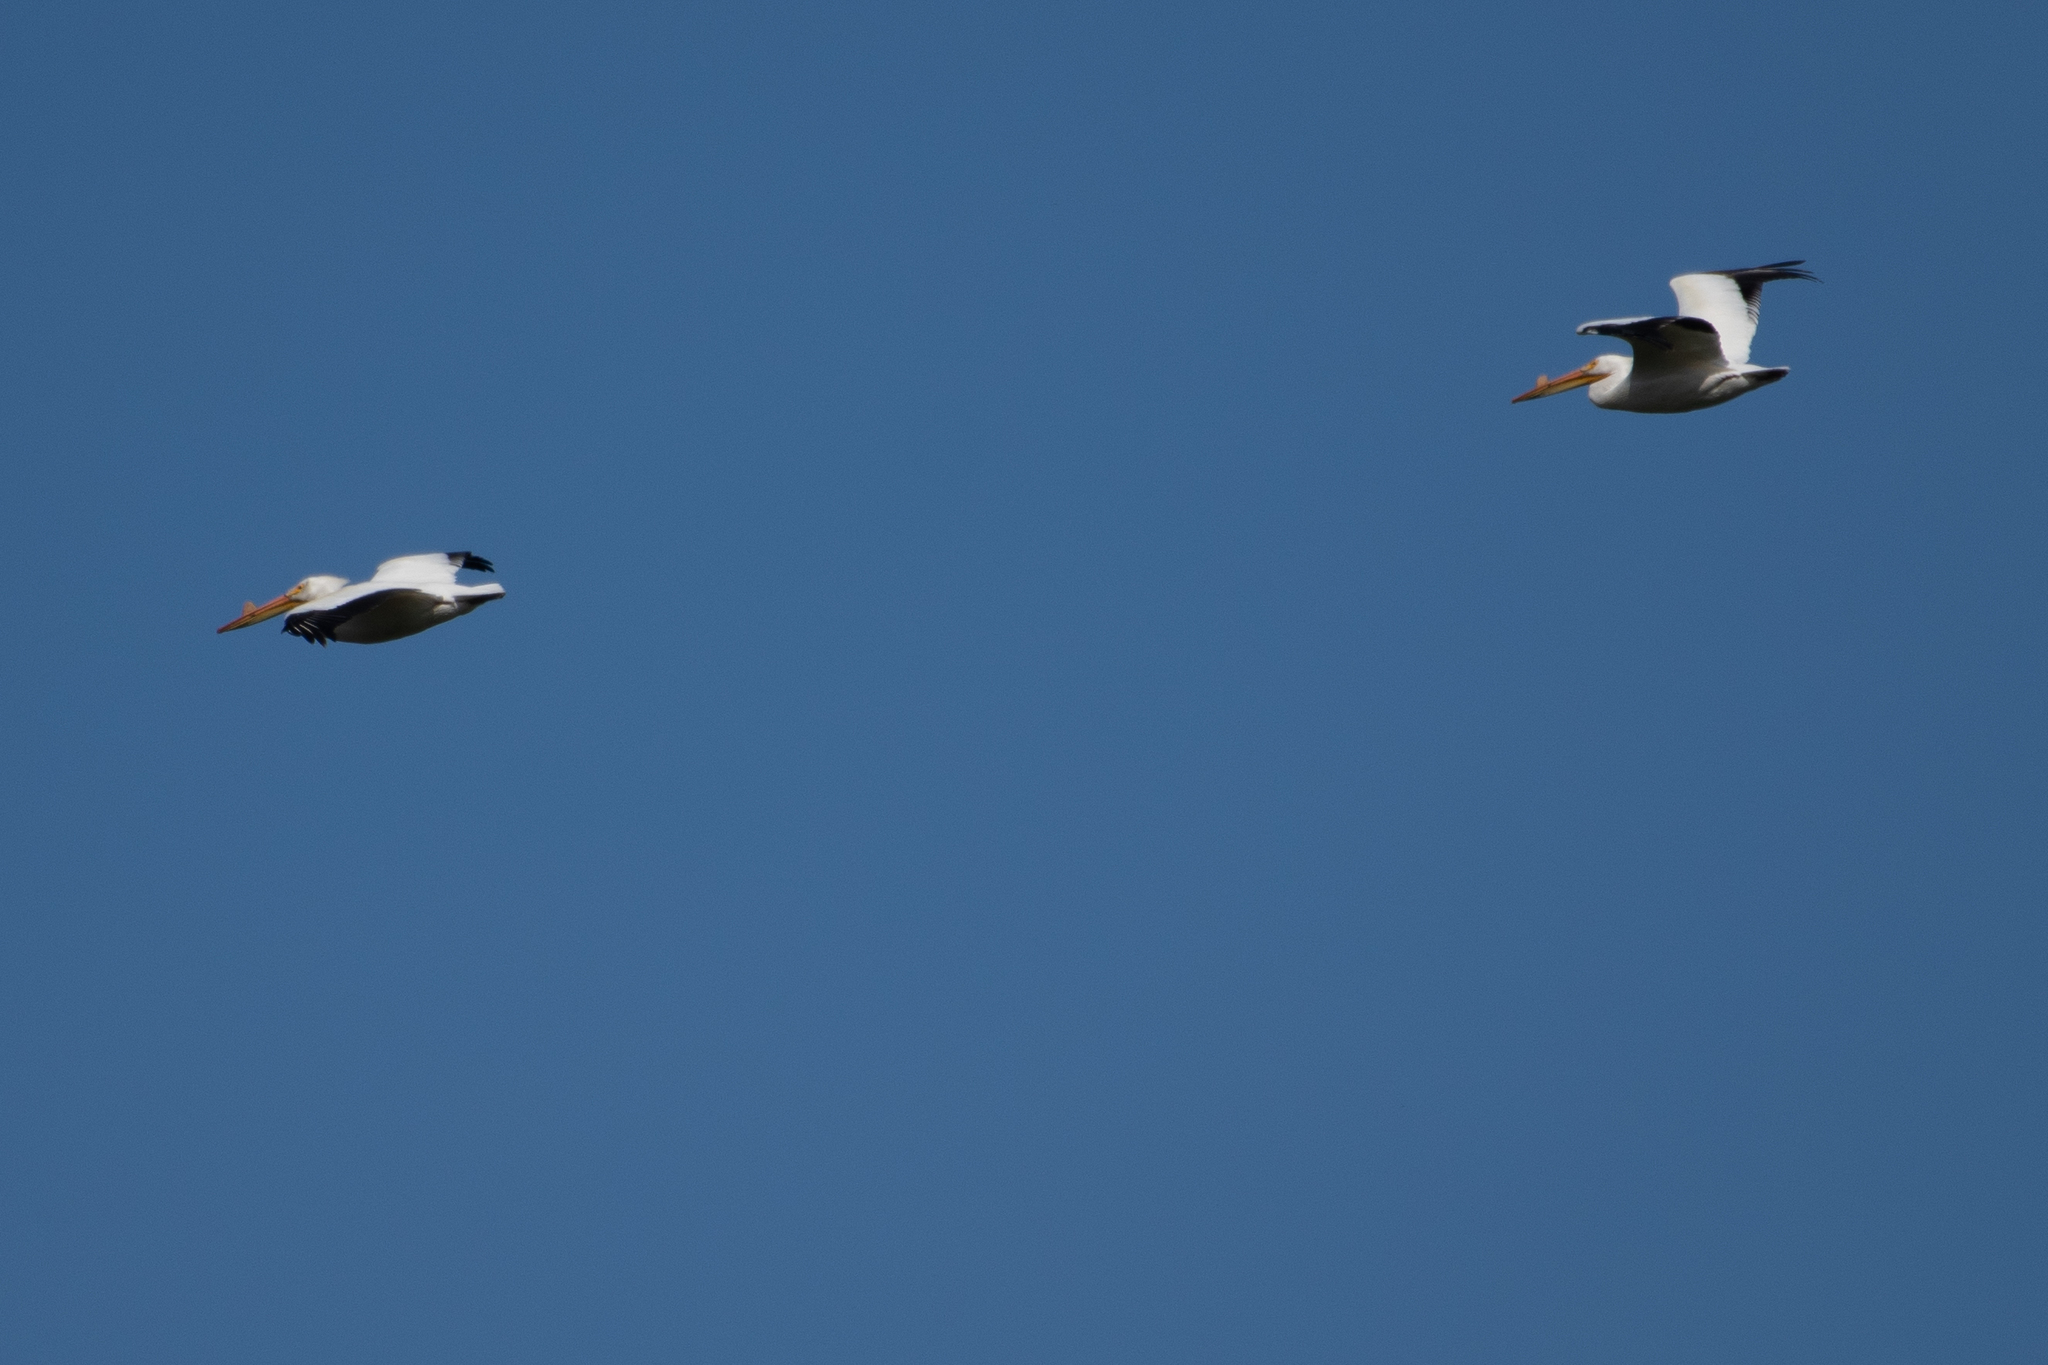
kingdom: Animalia
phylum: Chordata
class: Aves
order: Pelecaniformes
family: Pelecanidae
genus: Pelecanus
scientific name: Pelecanus erythrorhynchos
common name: American white pelican
